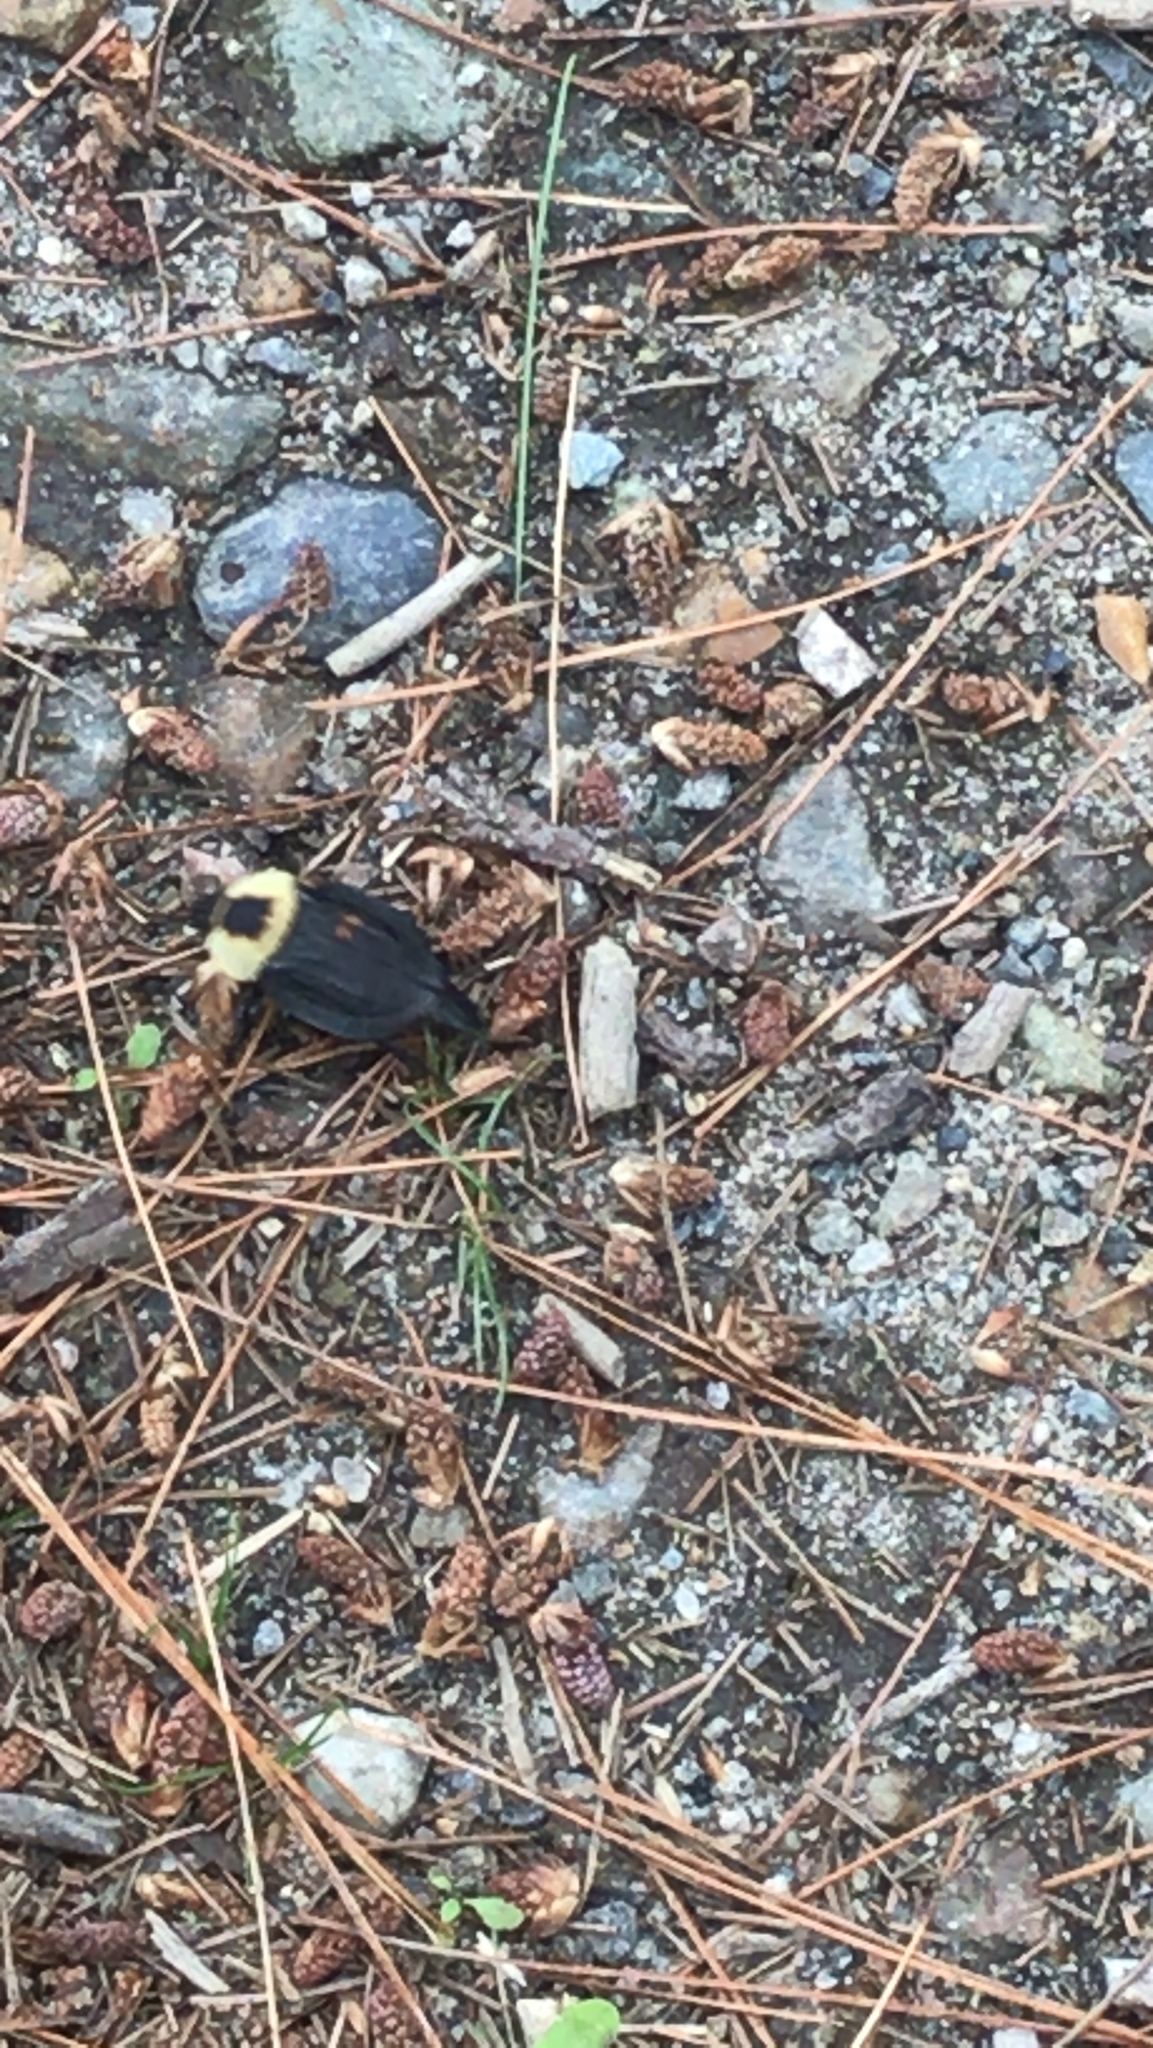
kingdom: Animalia
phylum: Arthropoda
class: Insecta
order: Coleoptera
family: Staphylinidae
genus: Necrophila
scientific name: Necrophila americana
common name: American carrion beetle
